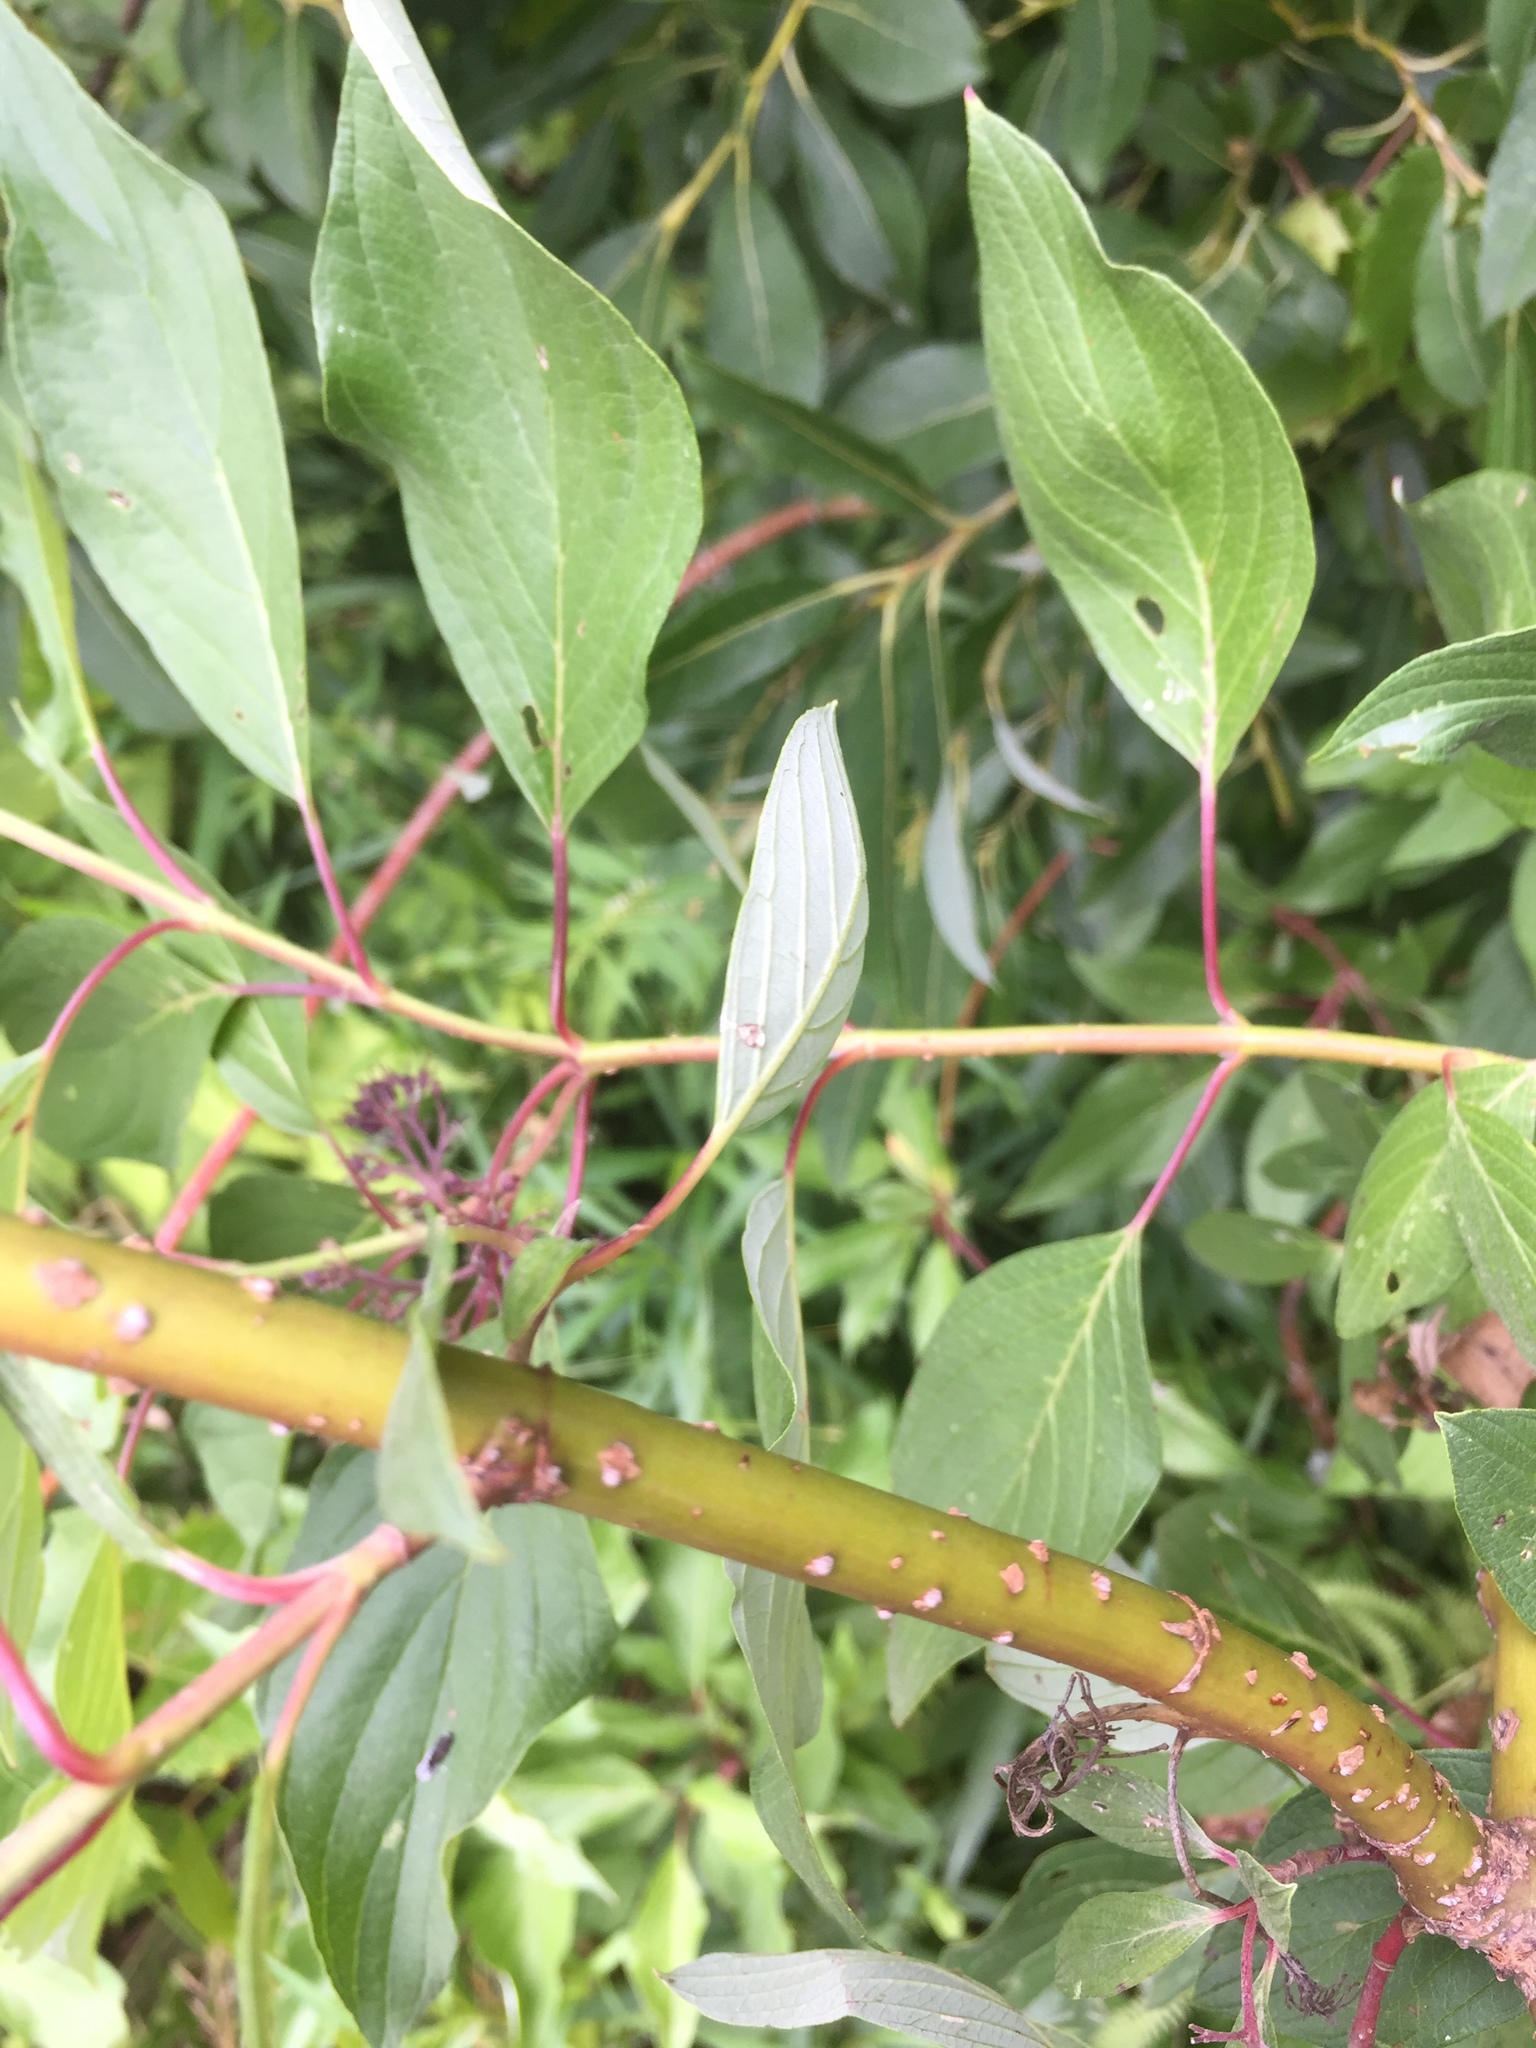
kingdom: Plantae
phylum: Tracheophyta
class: Magnoliopsida
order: Cornales
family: Cornaceae
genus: Cornus
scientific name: Cornus sericea
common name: Red-osier dogwood
